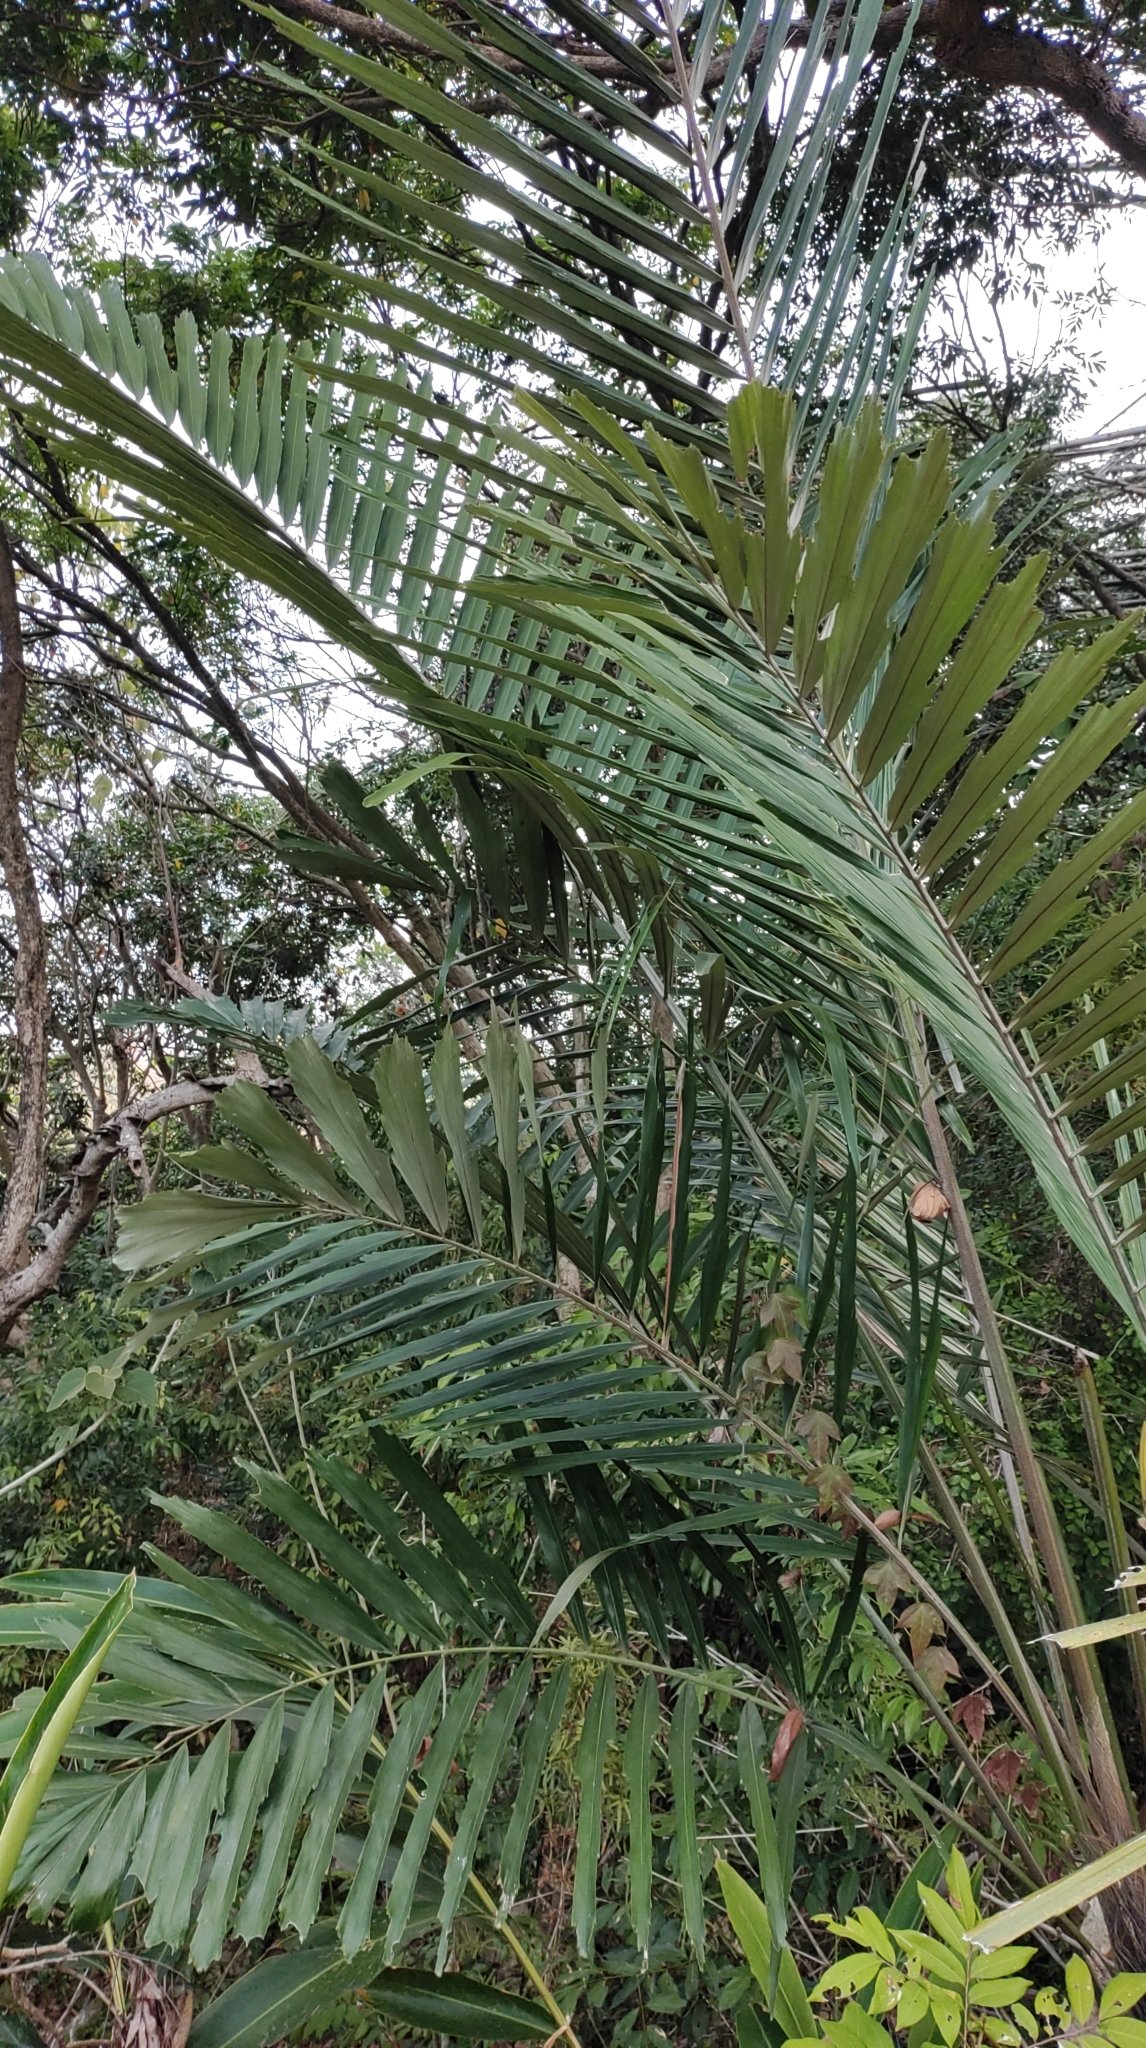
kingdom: Plantae
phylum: Tracheophyta
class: Liliopsida
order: Arecales
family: Arecaceae
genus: Arenga
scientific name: Arenga engleri
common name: Formosan sugar palm
